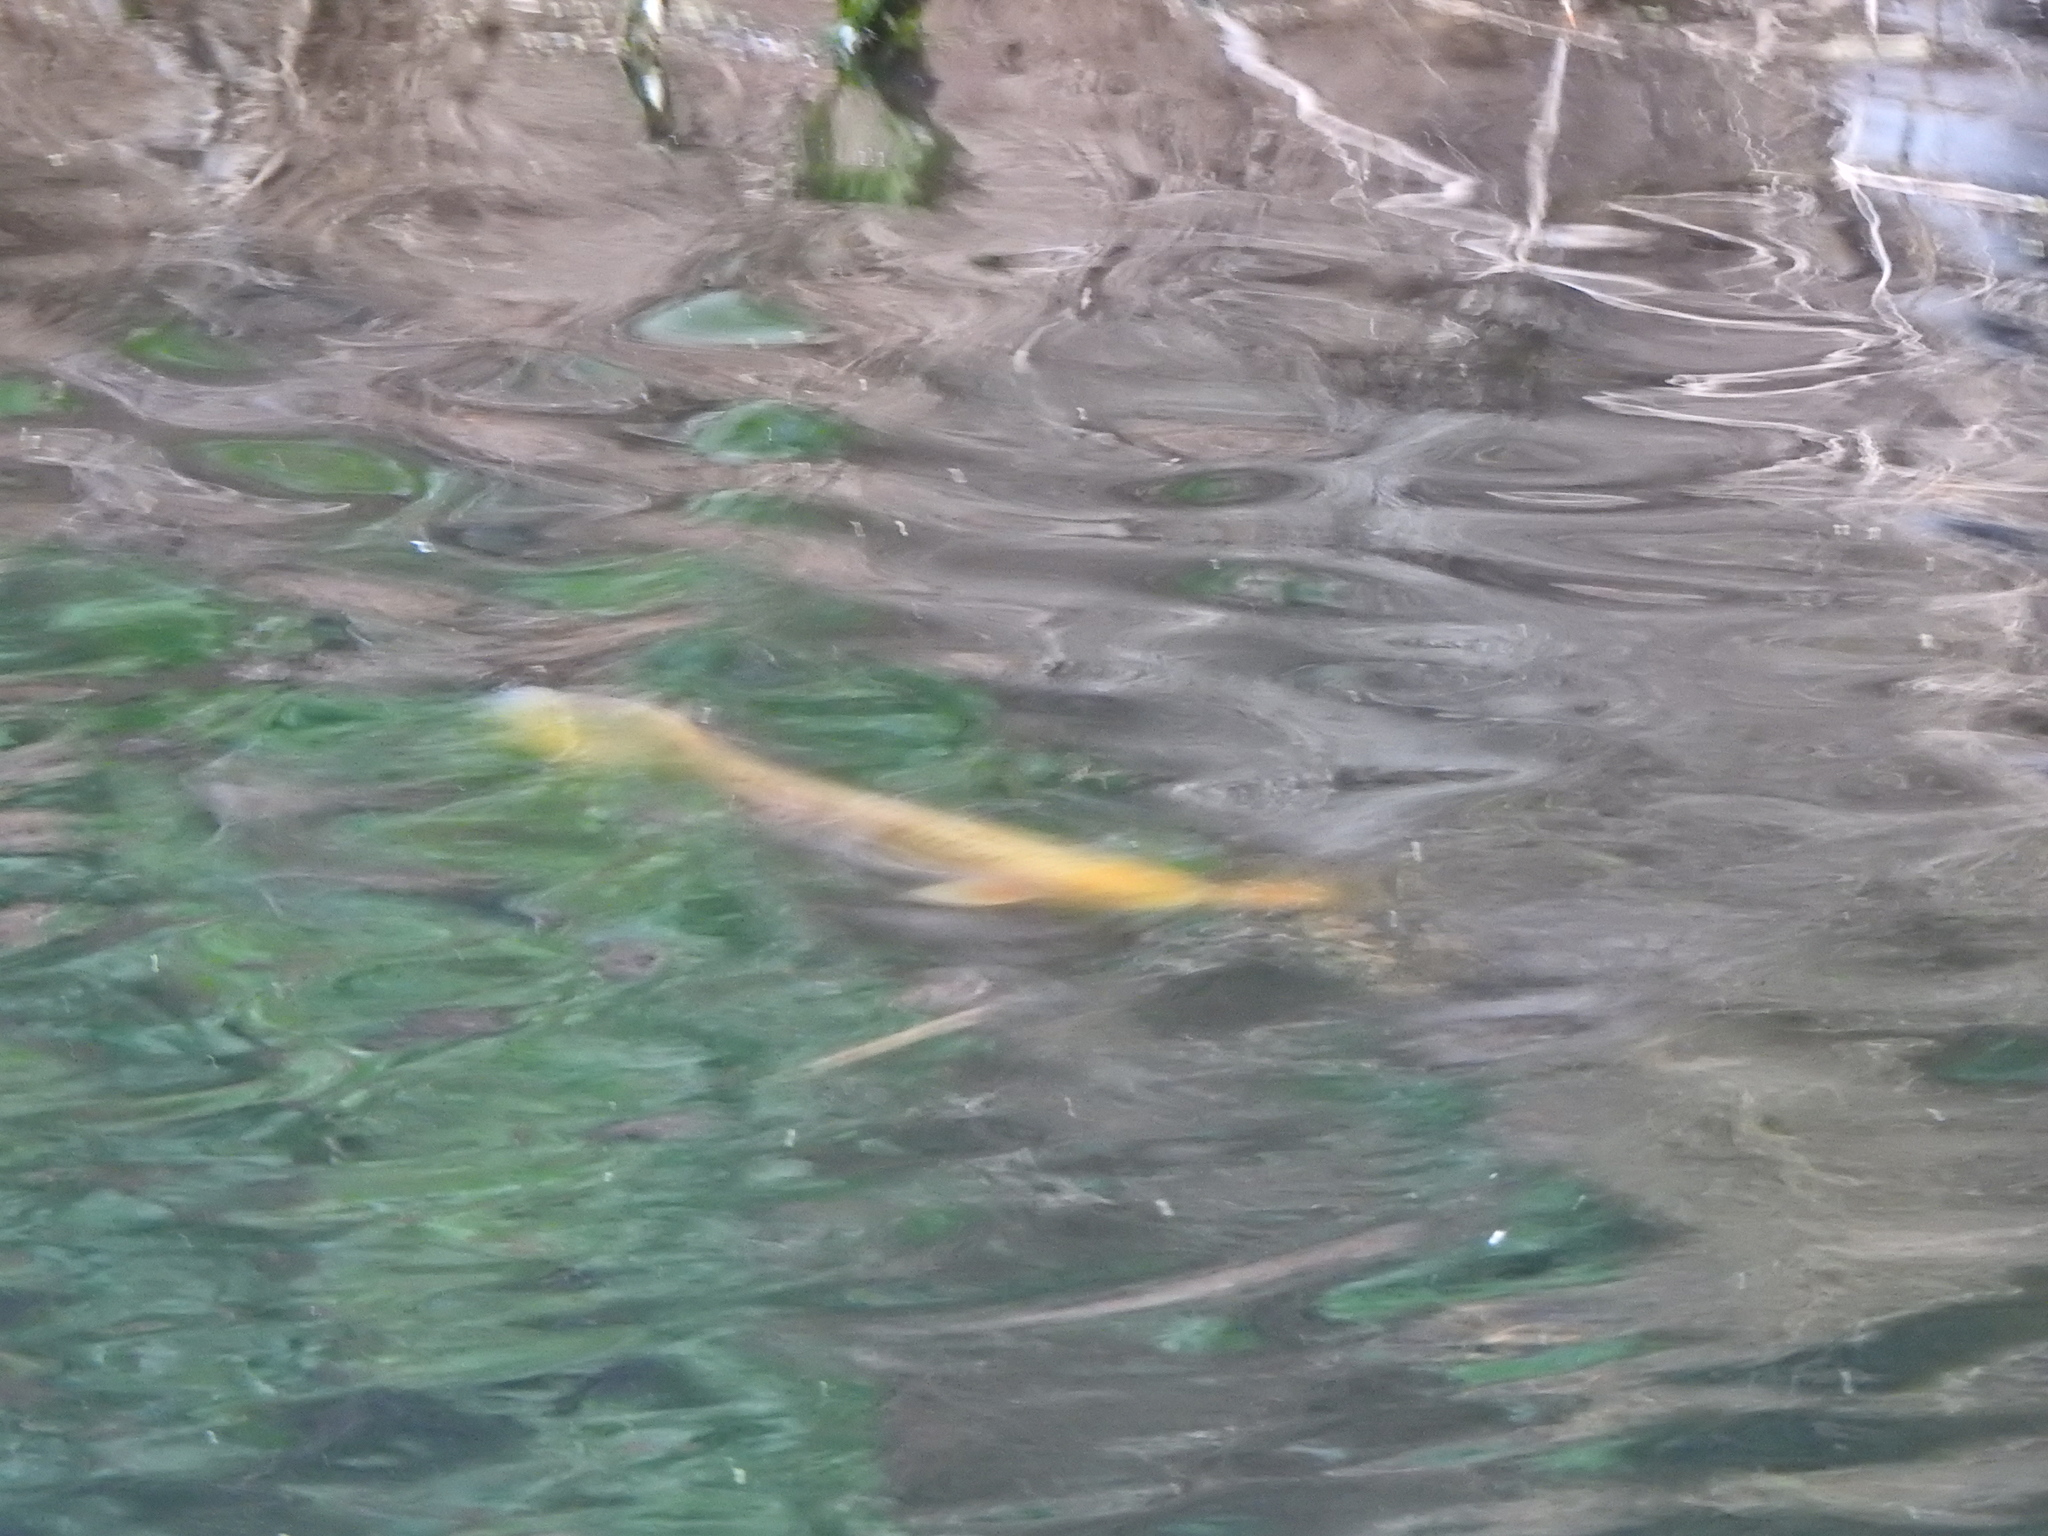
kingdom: Animalia
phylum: Chordata
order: Cypriniformes
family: Cyprinidae
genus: Cyprinus
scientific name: Cyprinus rubrofuscus
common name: Koi
